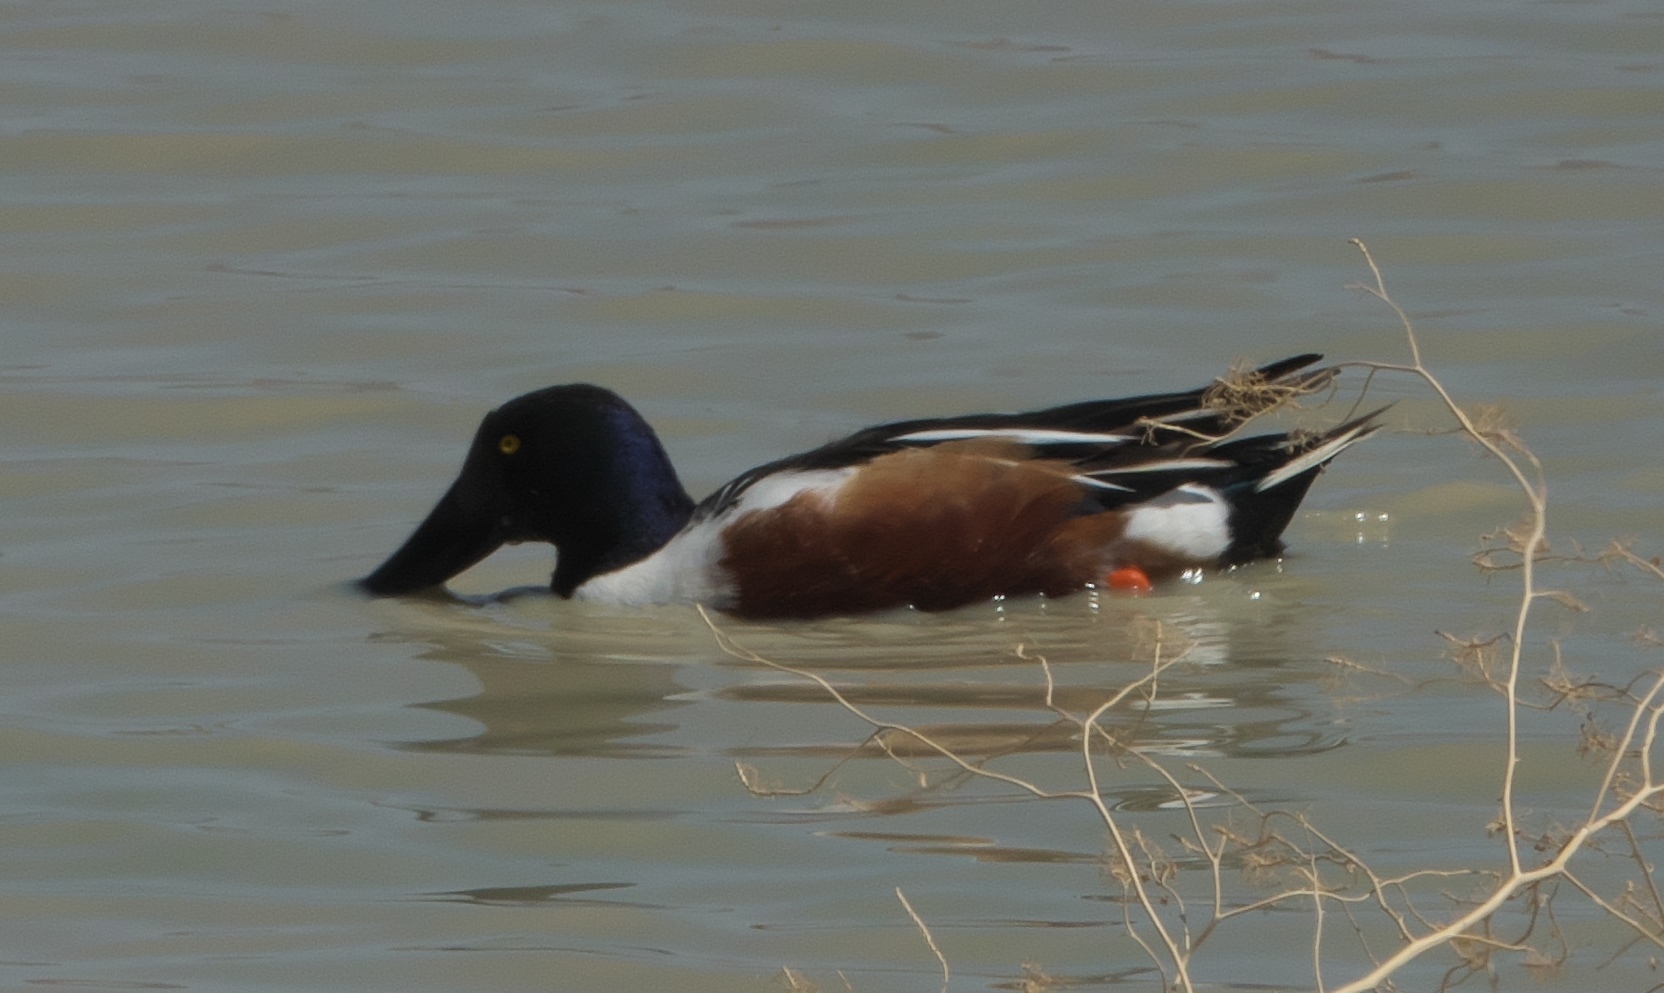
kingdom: Animalia
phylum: Chordata
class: Aves
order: Anseriformes
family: Anatidae
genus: Spatula
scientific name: Spatula clypeata
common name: Northern shoveler
